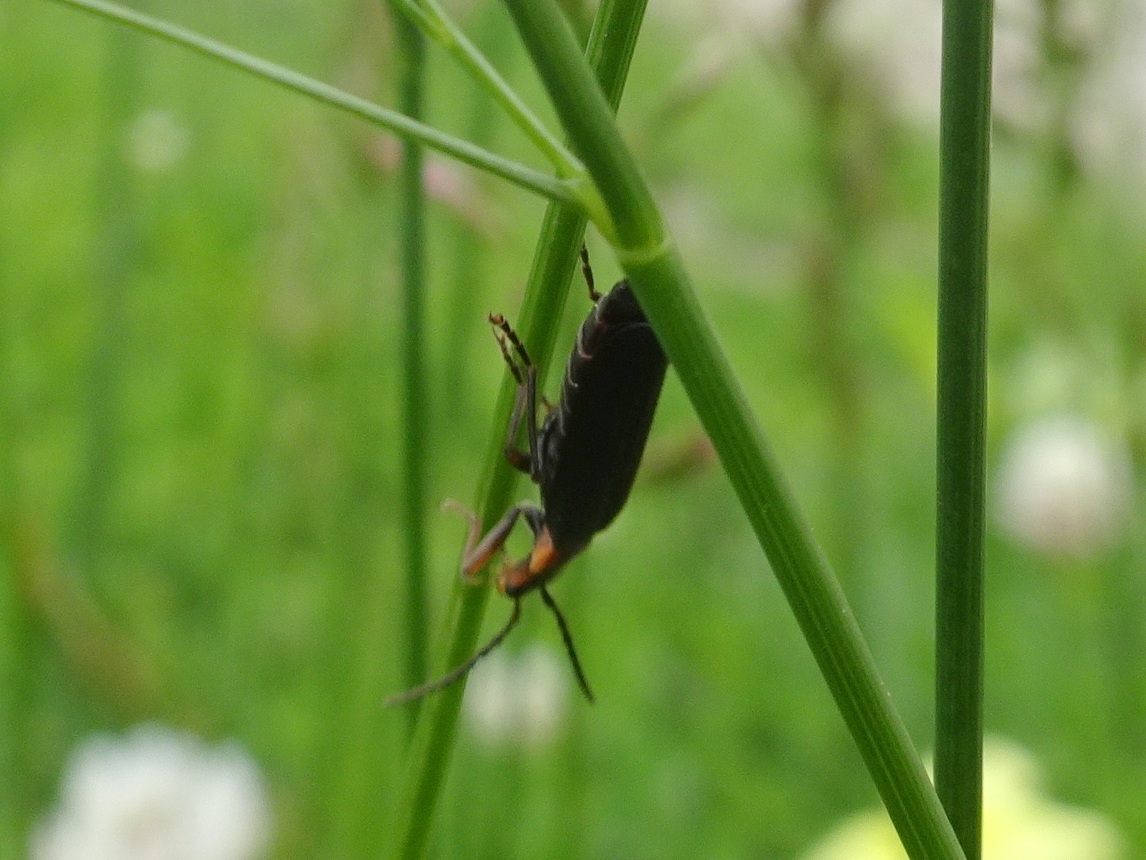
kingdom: Animalia
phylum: Arthropoda
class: Insecta
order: Coleoptera
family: Cantharidae
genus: Podabrus
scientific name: Podabrus rugosulus
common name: Wrinkled soldier beetle
